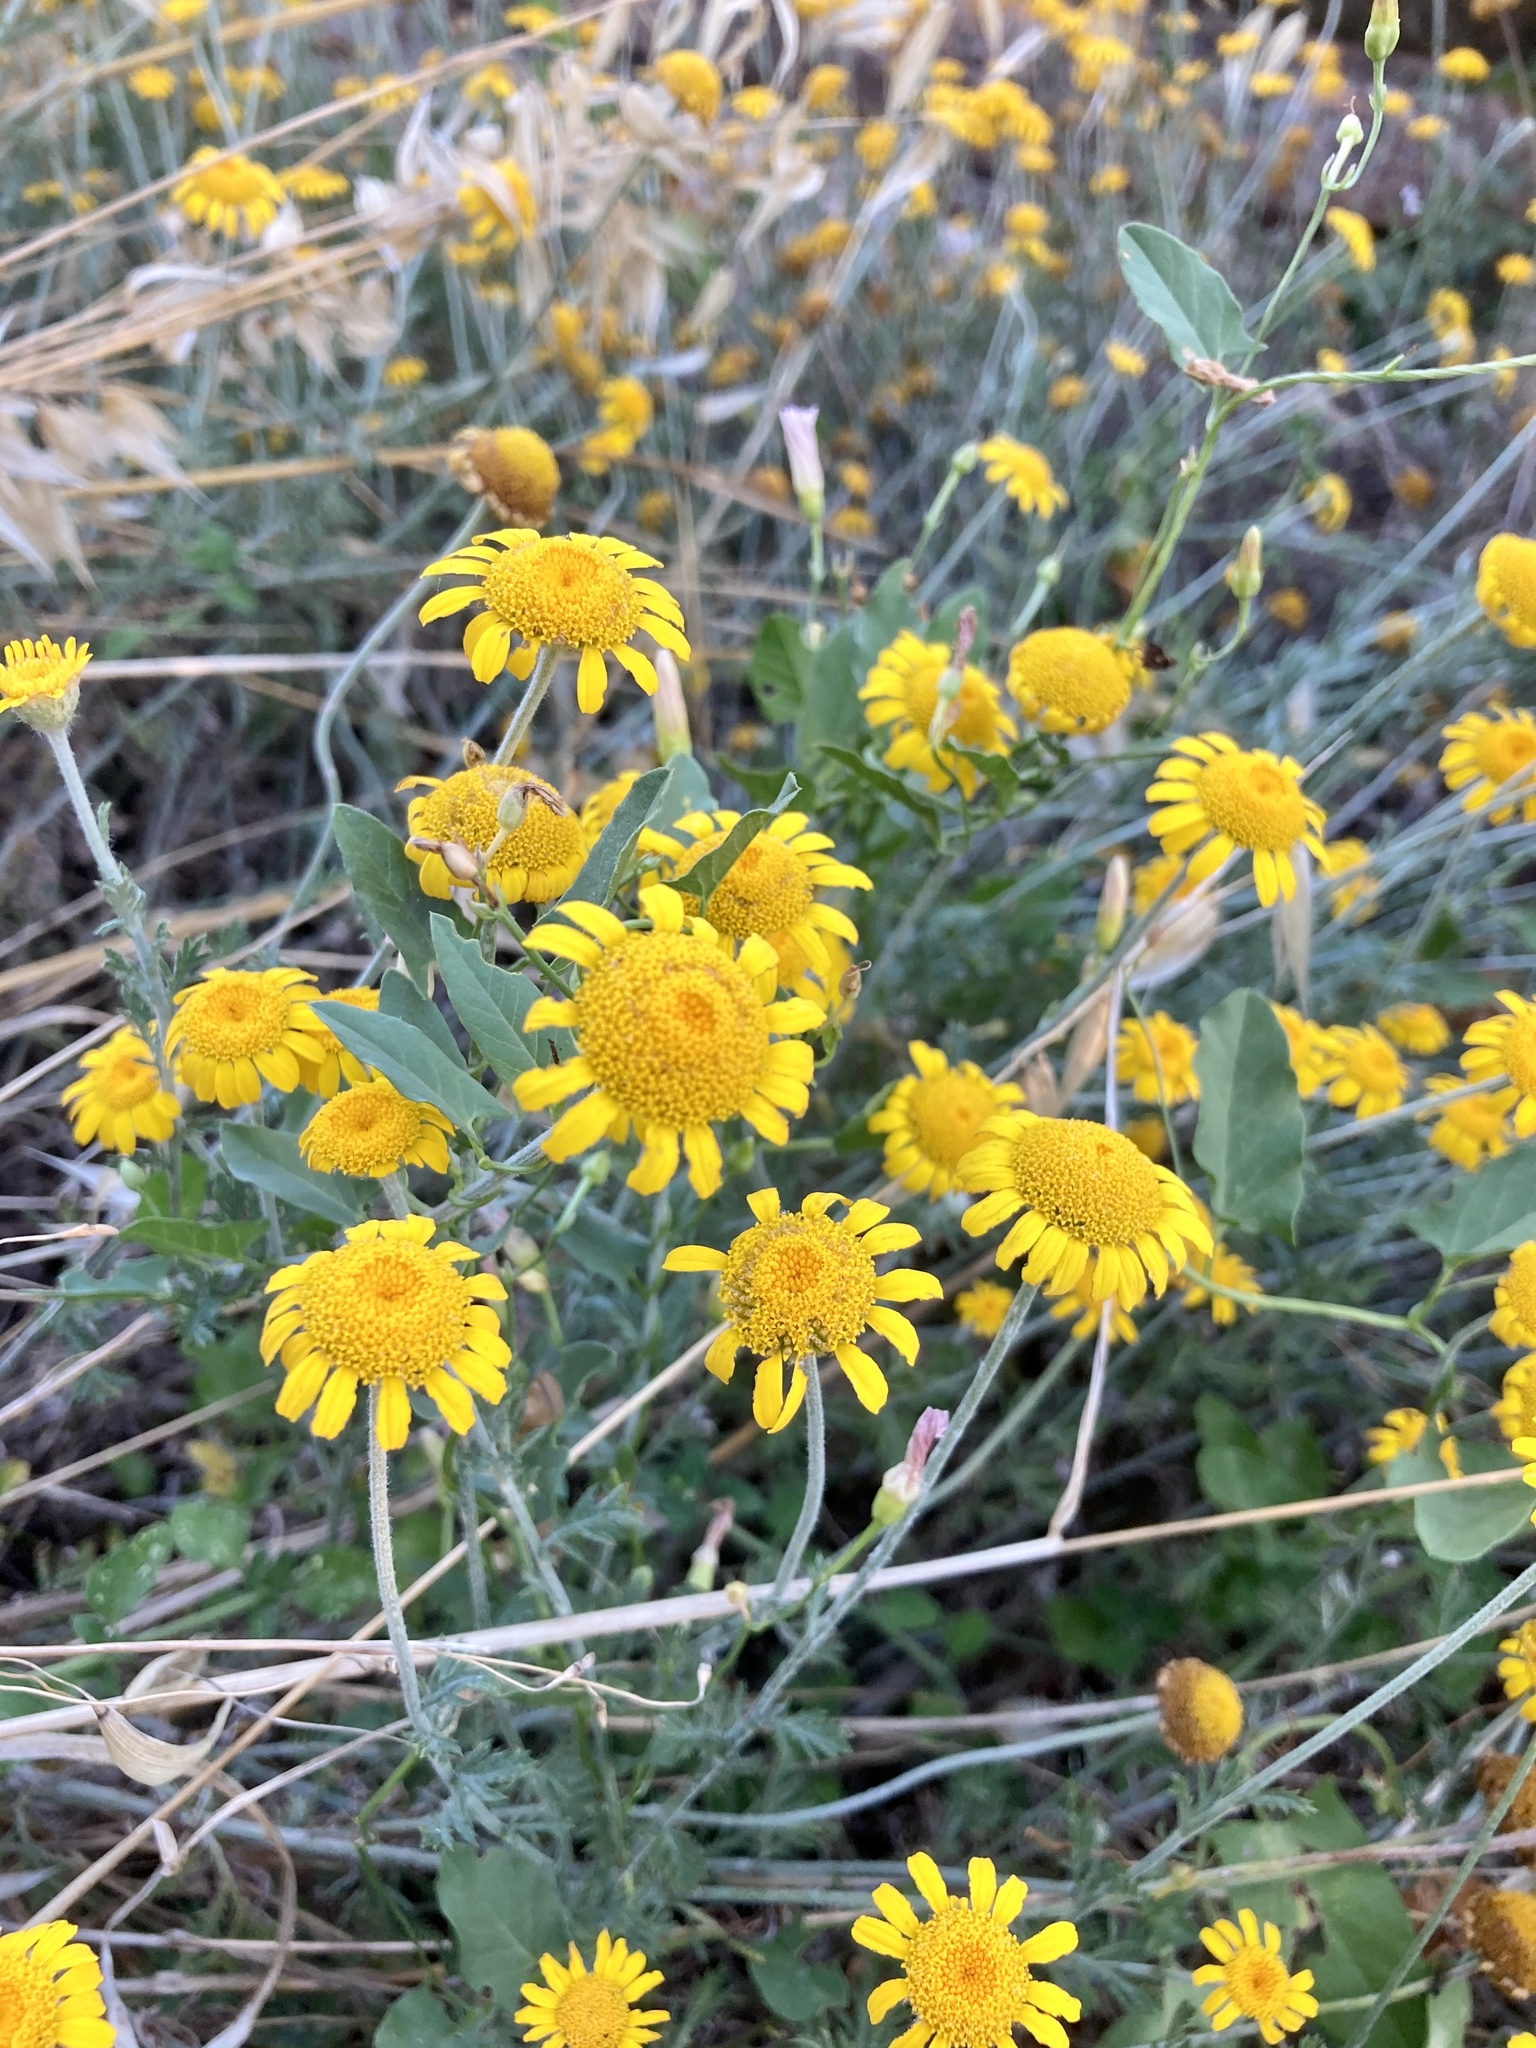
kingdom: Plantae
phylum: Tracheophyta
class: Magnoliopsida
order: Asterales
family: Asteraceae
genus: Cota
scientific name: Cota tinctoria
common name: Golden chamomile
